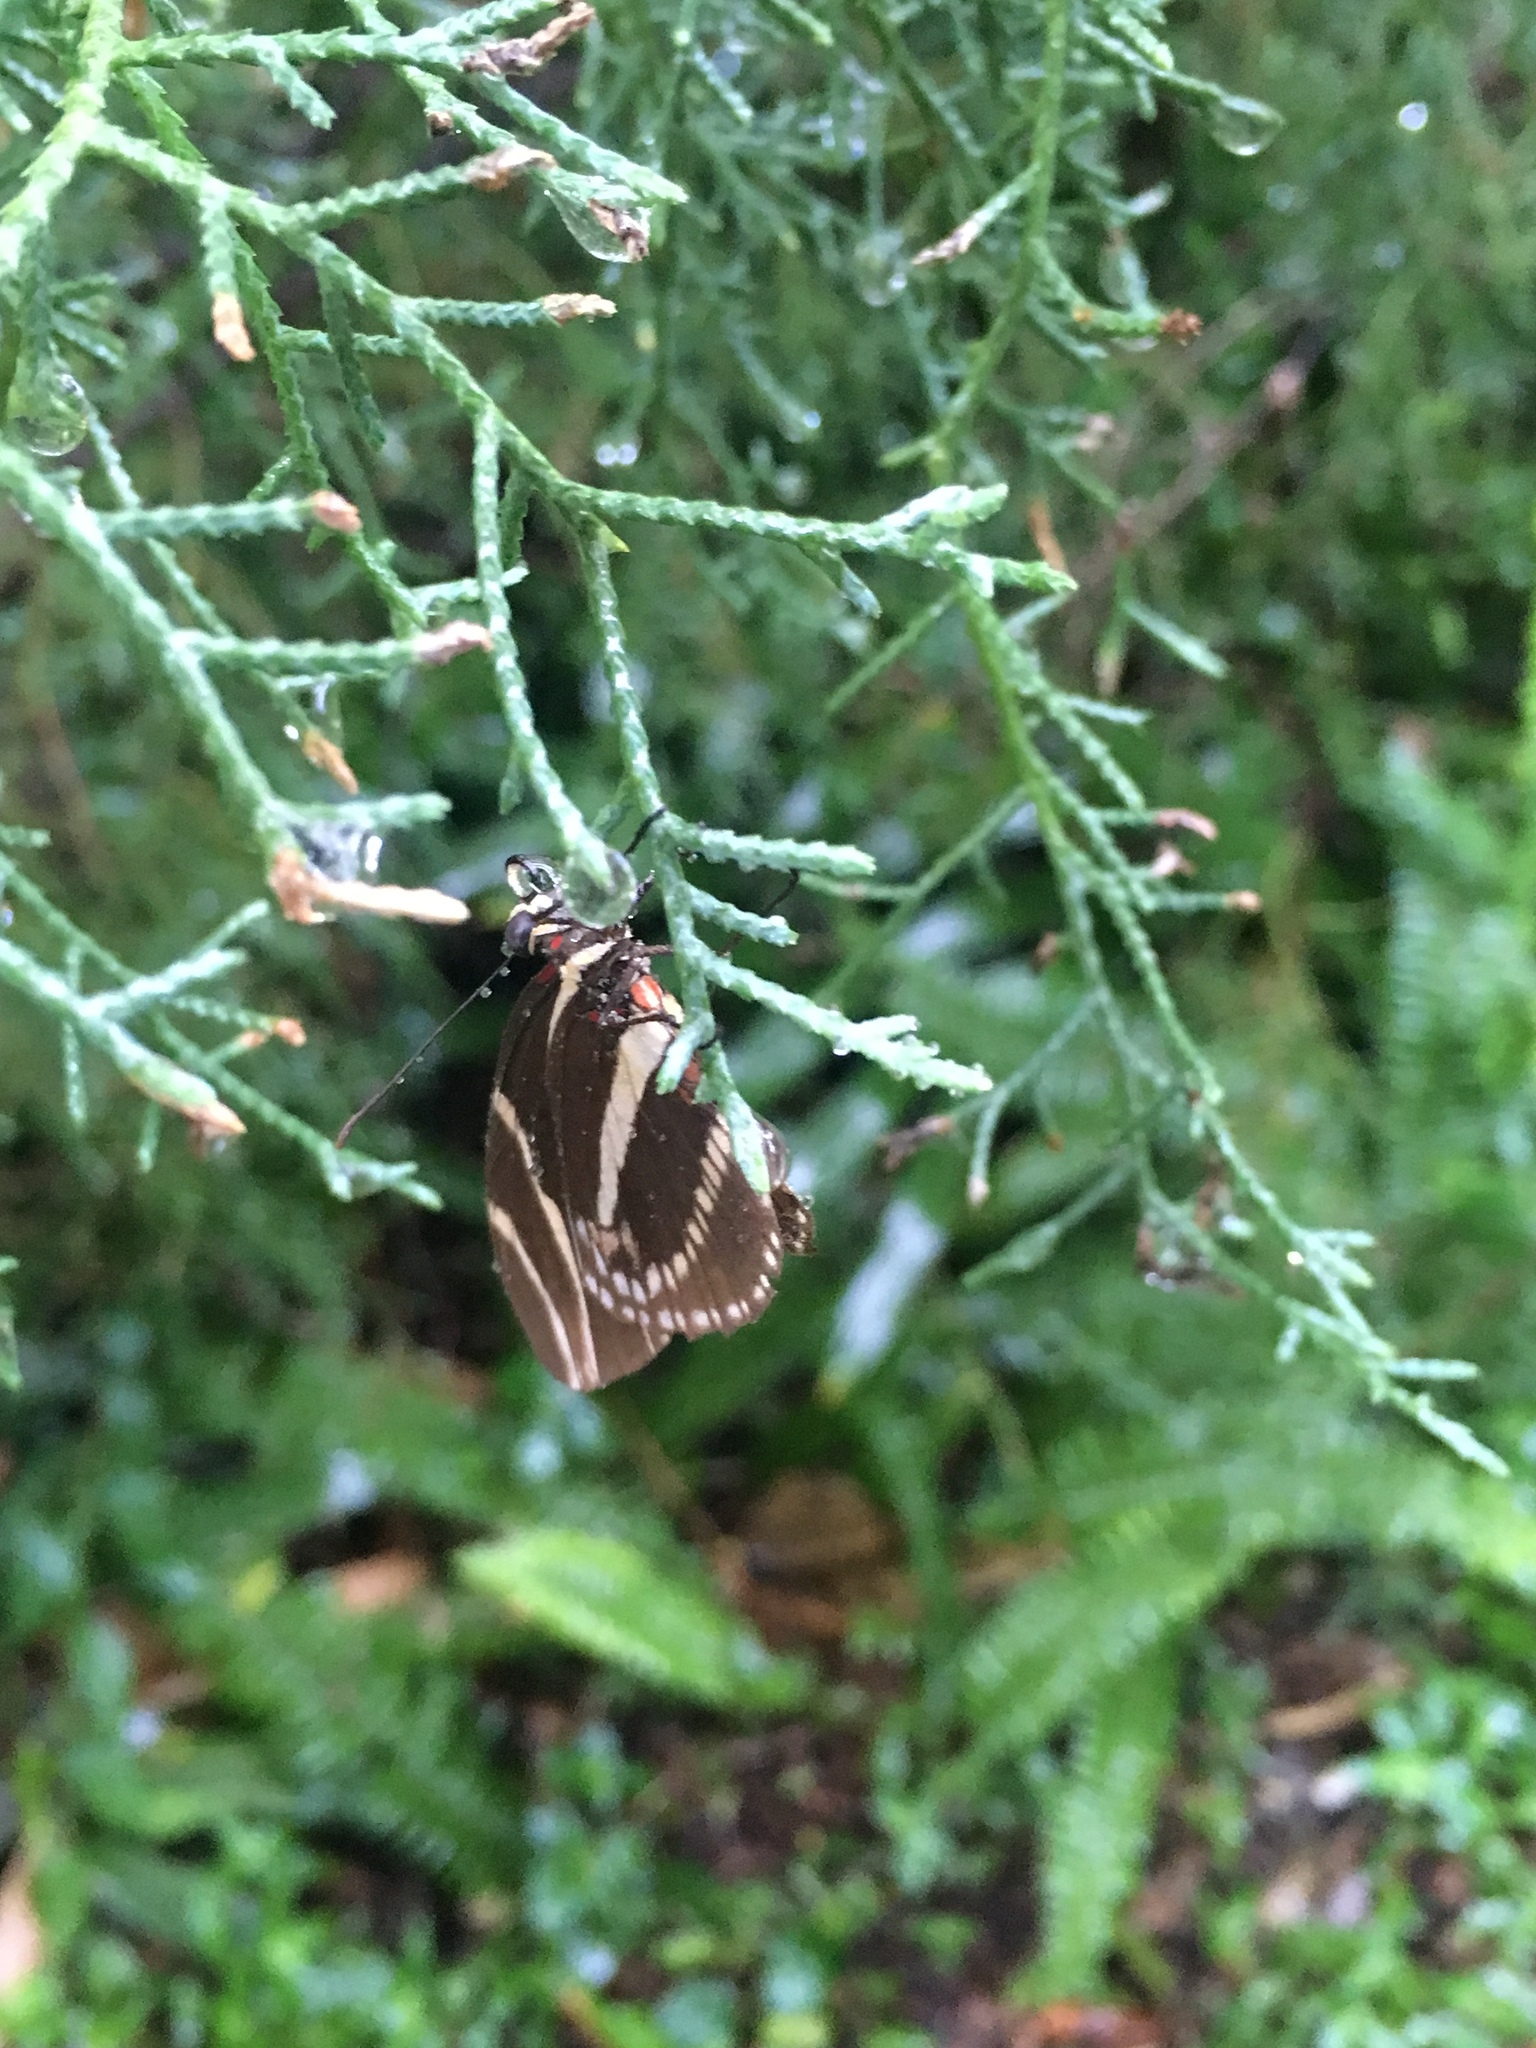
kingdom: Animalia
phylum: Arthropoda
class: Insecta
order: Lepidoptera
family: Nymphalidae
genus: Heliconius
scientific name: Heliconius charithonia
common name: Zebra long wing
